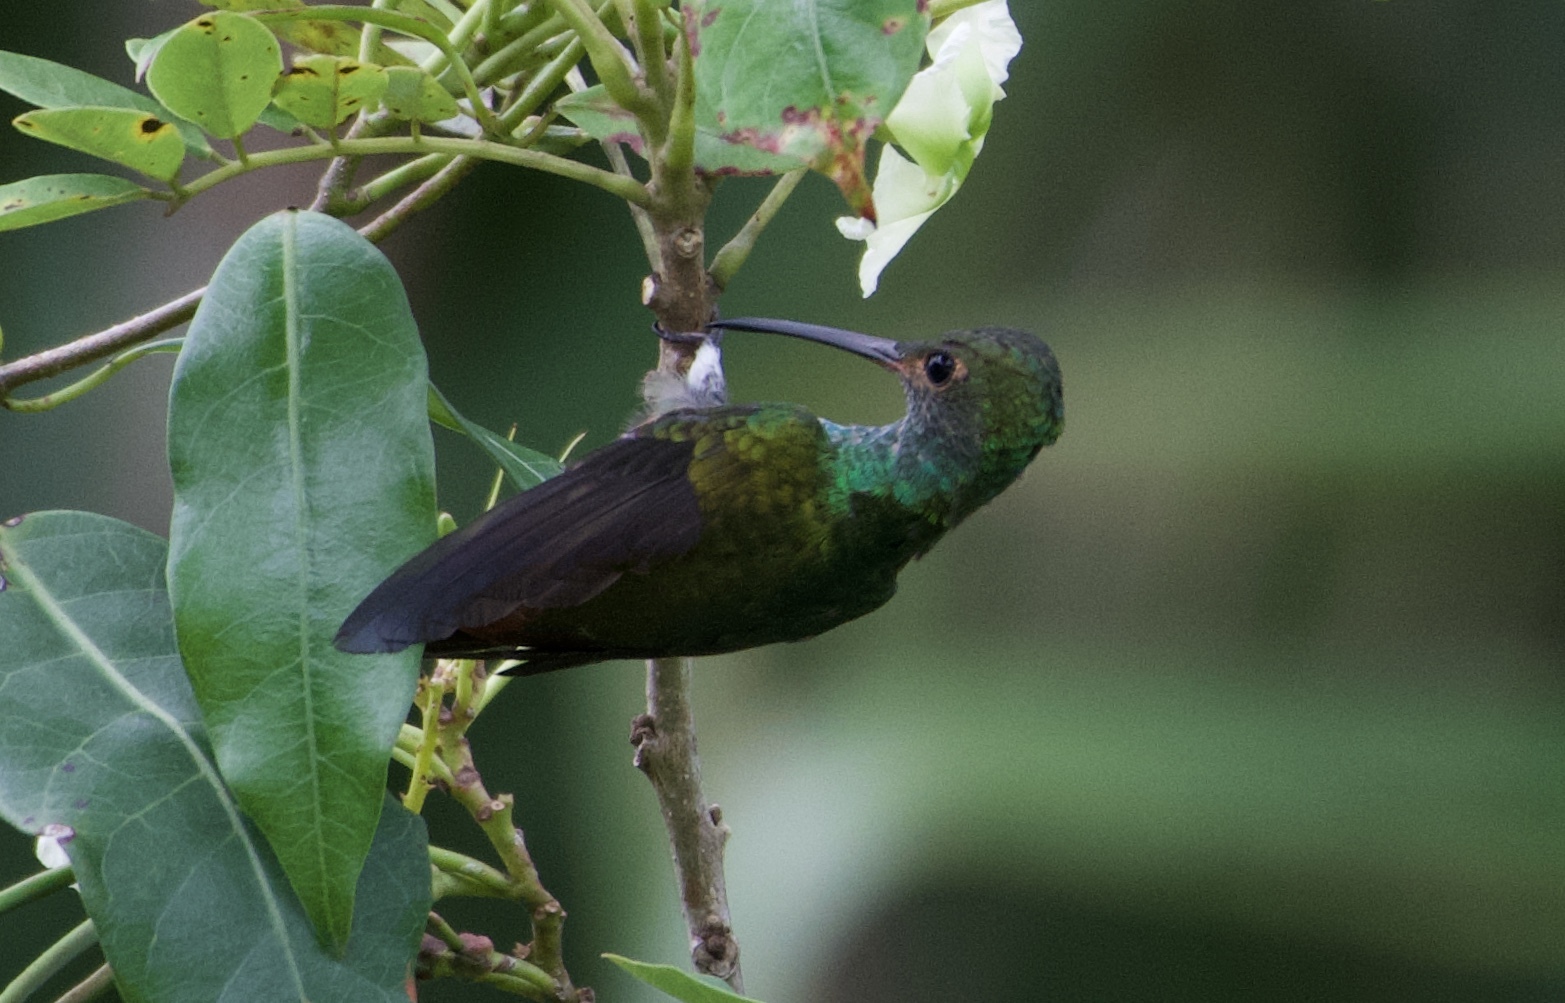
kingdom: Animalia
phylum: Chordata
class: Aves
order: Apodiformes
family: Trochilidae
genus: Amazilia
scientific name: Amazilia tzacatl
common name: Rufous-tailed hummingbird
